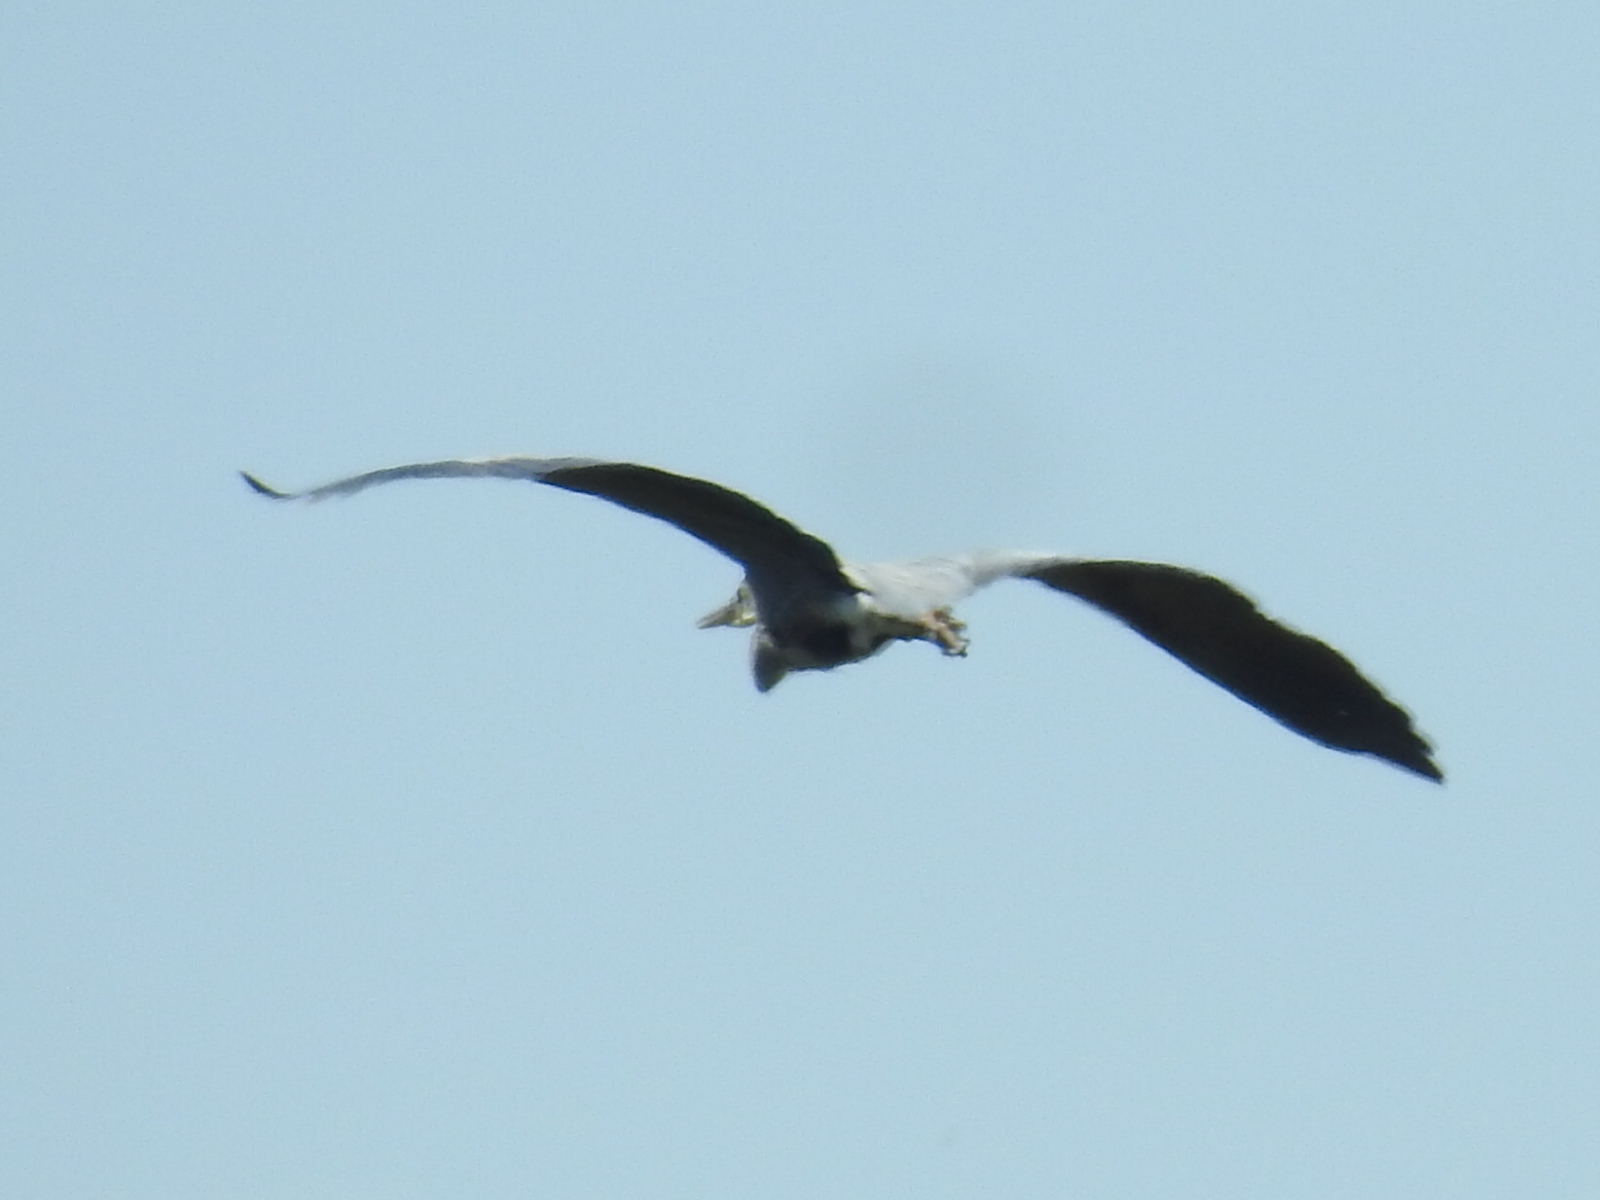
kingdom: Animalia
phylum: Chordata
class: Aves
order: Pelecaniformes
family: Ardeidae
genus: Ardea
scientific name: Ardea herodias
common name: Great blue heron
